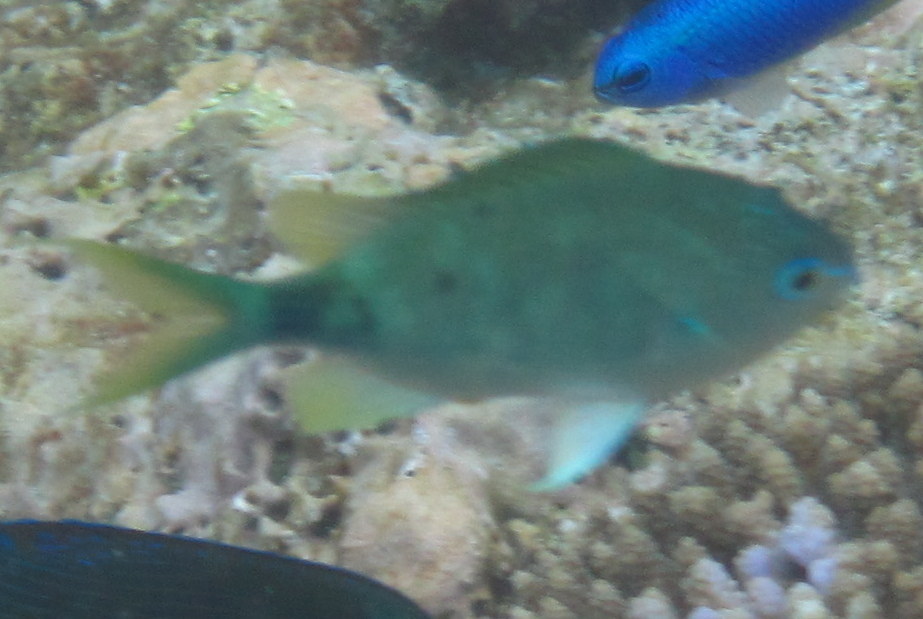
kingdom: Animalia
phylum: Chordata
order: Perciformes
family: Pomacentridae
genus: Chromis
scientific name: Chromis atripectoralis
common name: Black-axil chromis
